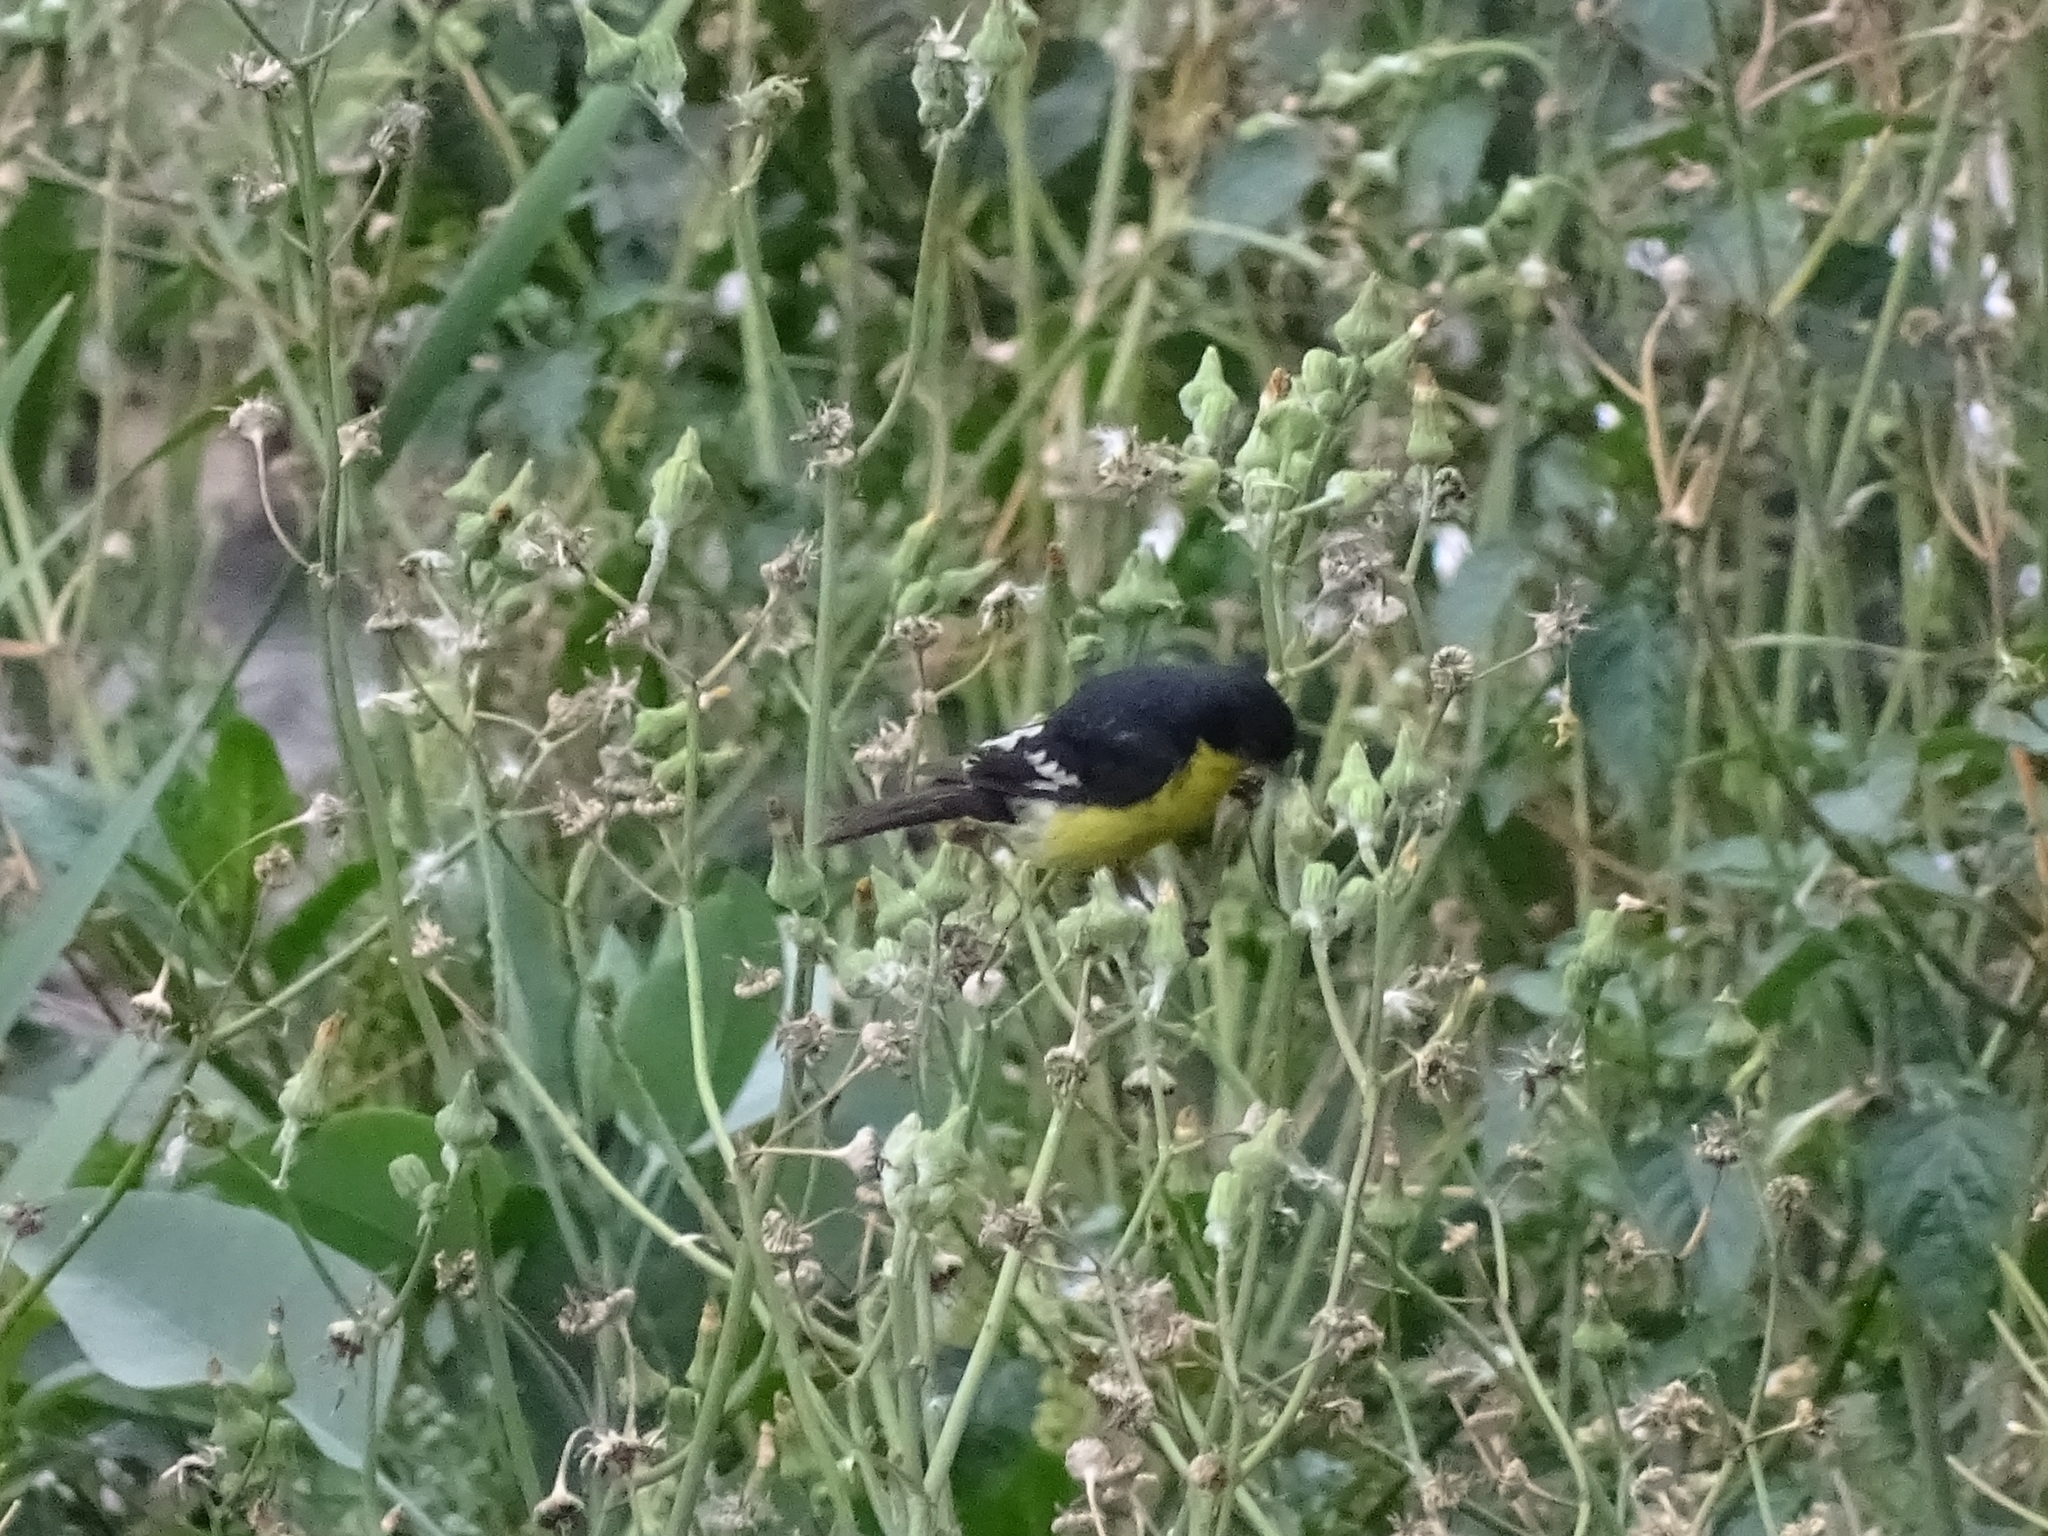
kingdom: Animalia
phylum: Chordata
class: Aves
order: Passeriformes
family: Fringillidae
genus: Spinus
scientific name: Spinus psaltria
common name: Lesser goldfinch
